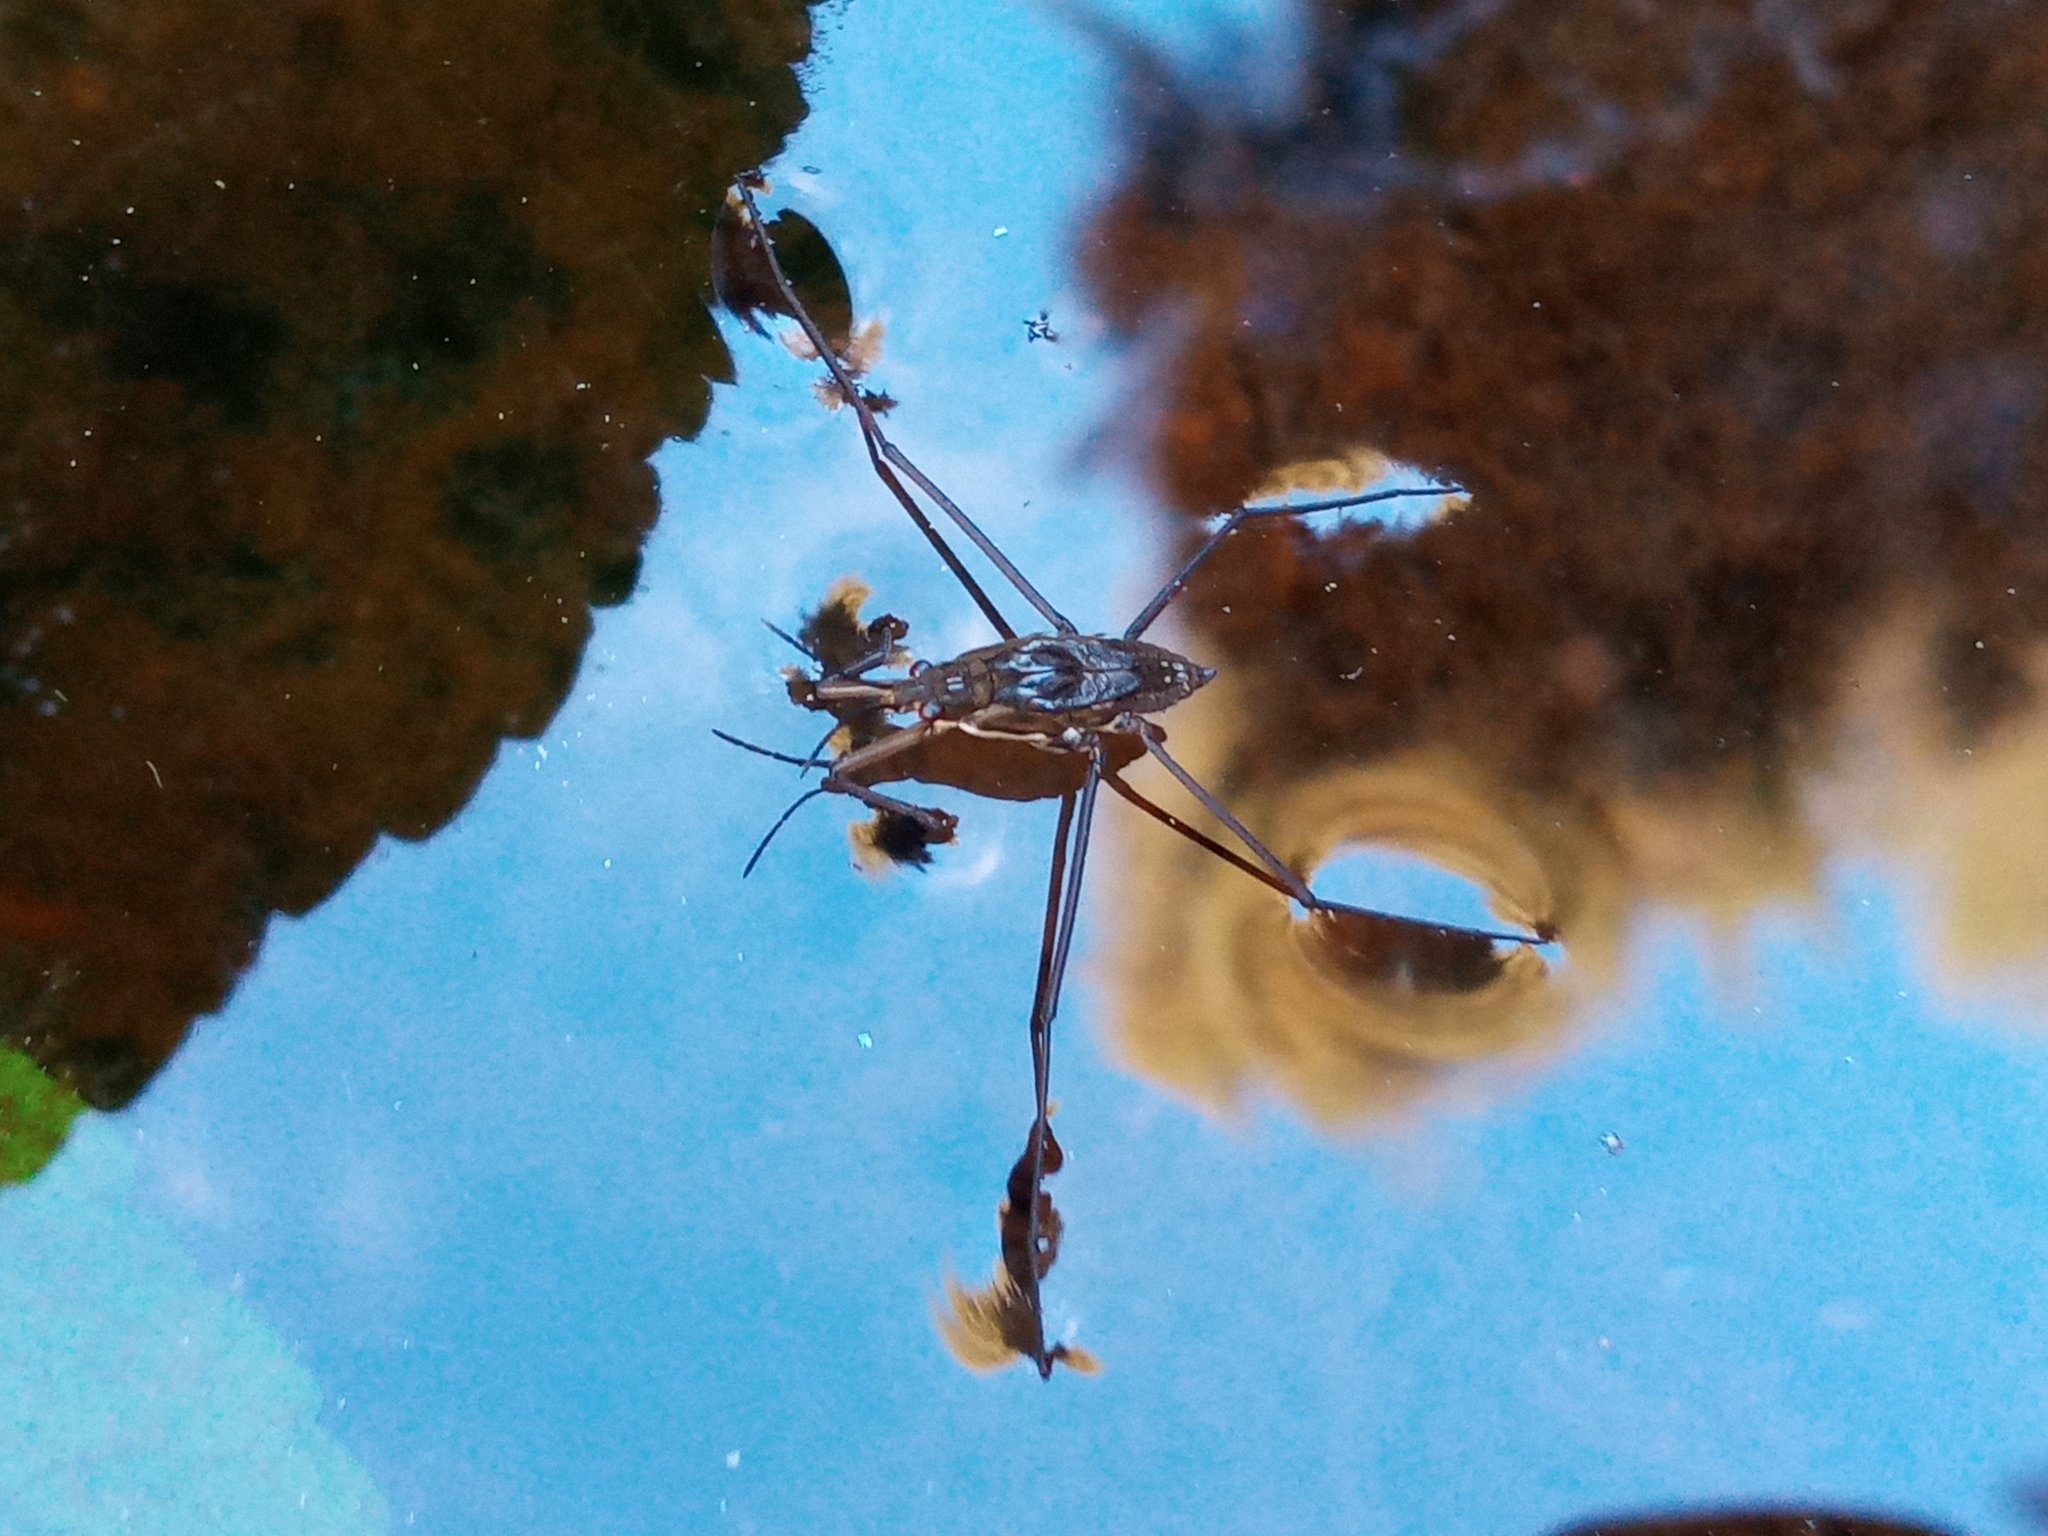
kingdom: Animalia
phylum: Arthropoda
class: Insecta
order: Hemiptera
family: Gerridae
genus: Aquarius
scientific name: Aquarius remigis
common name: Common water strider
